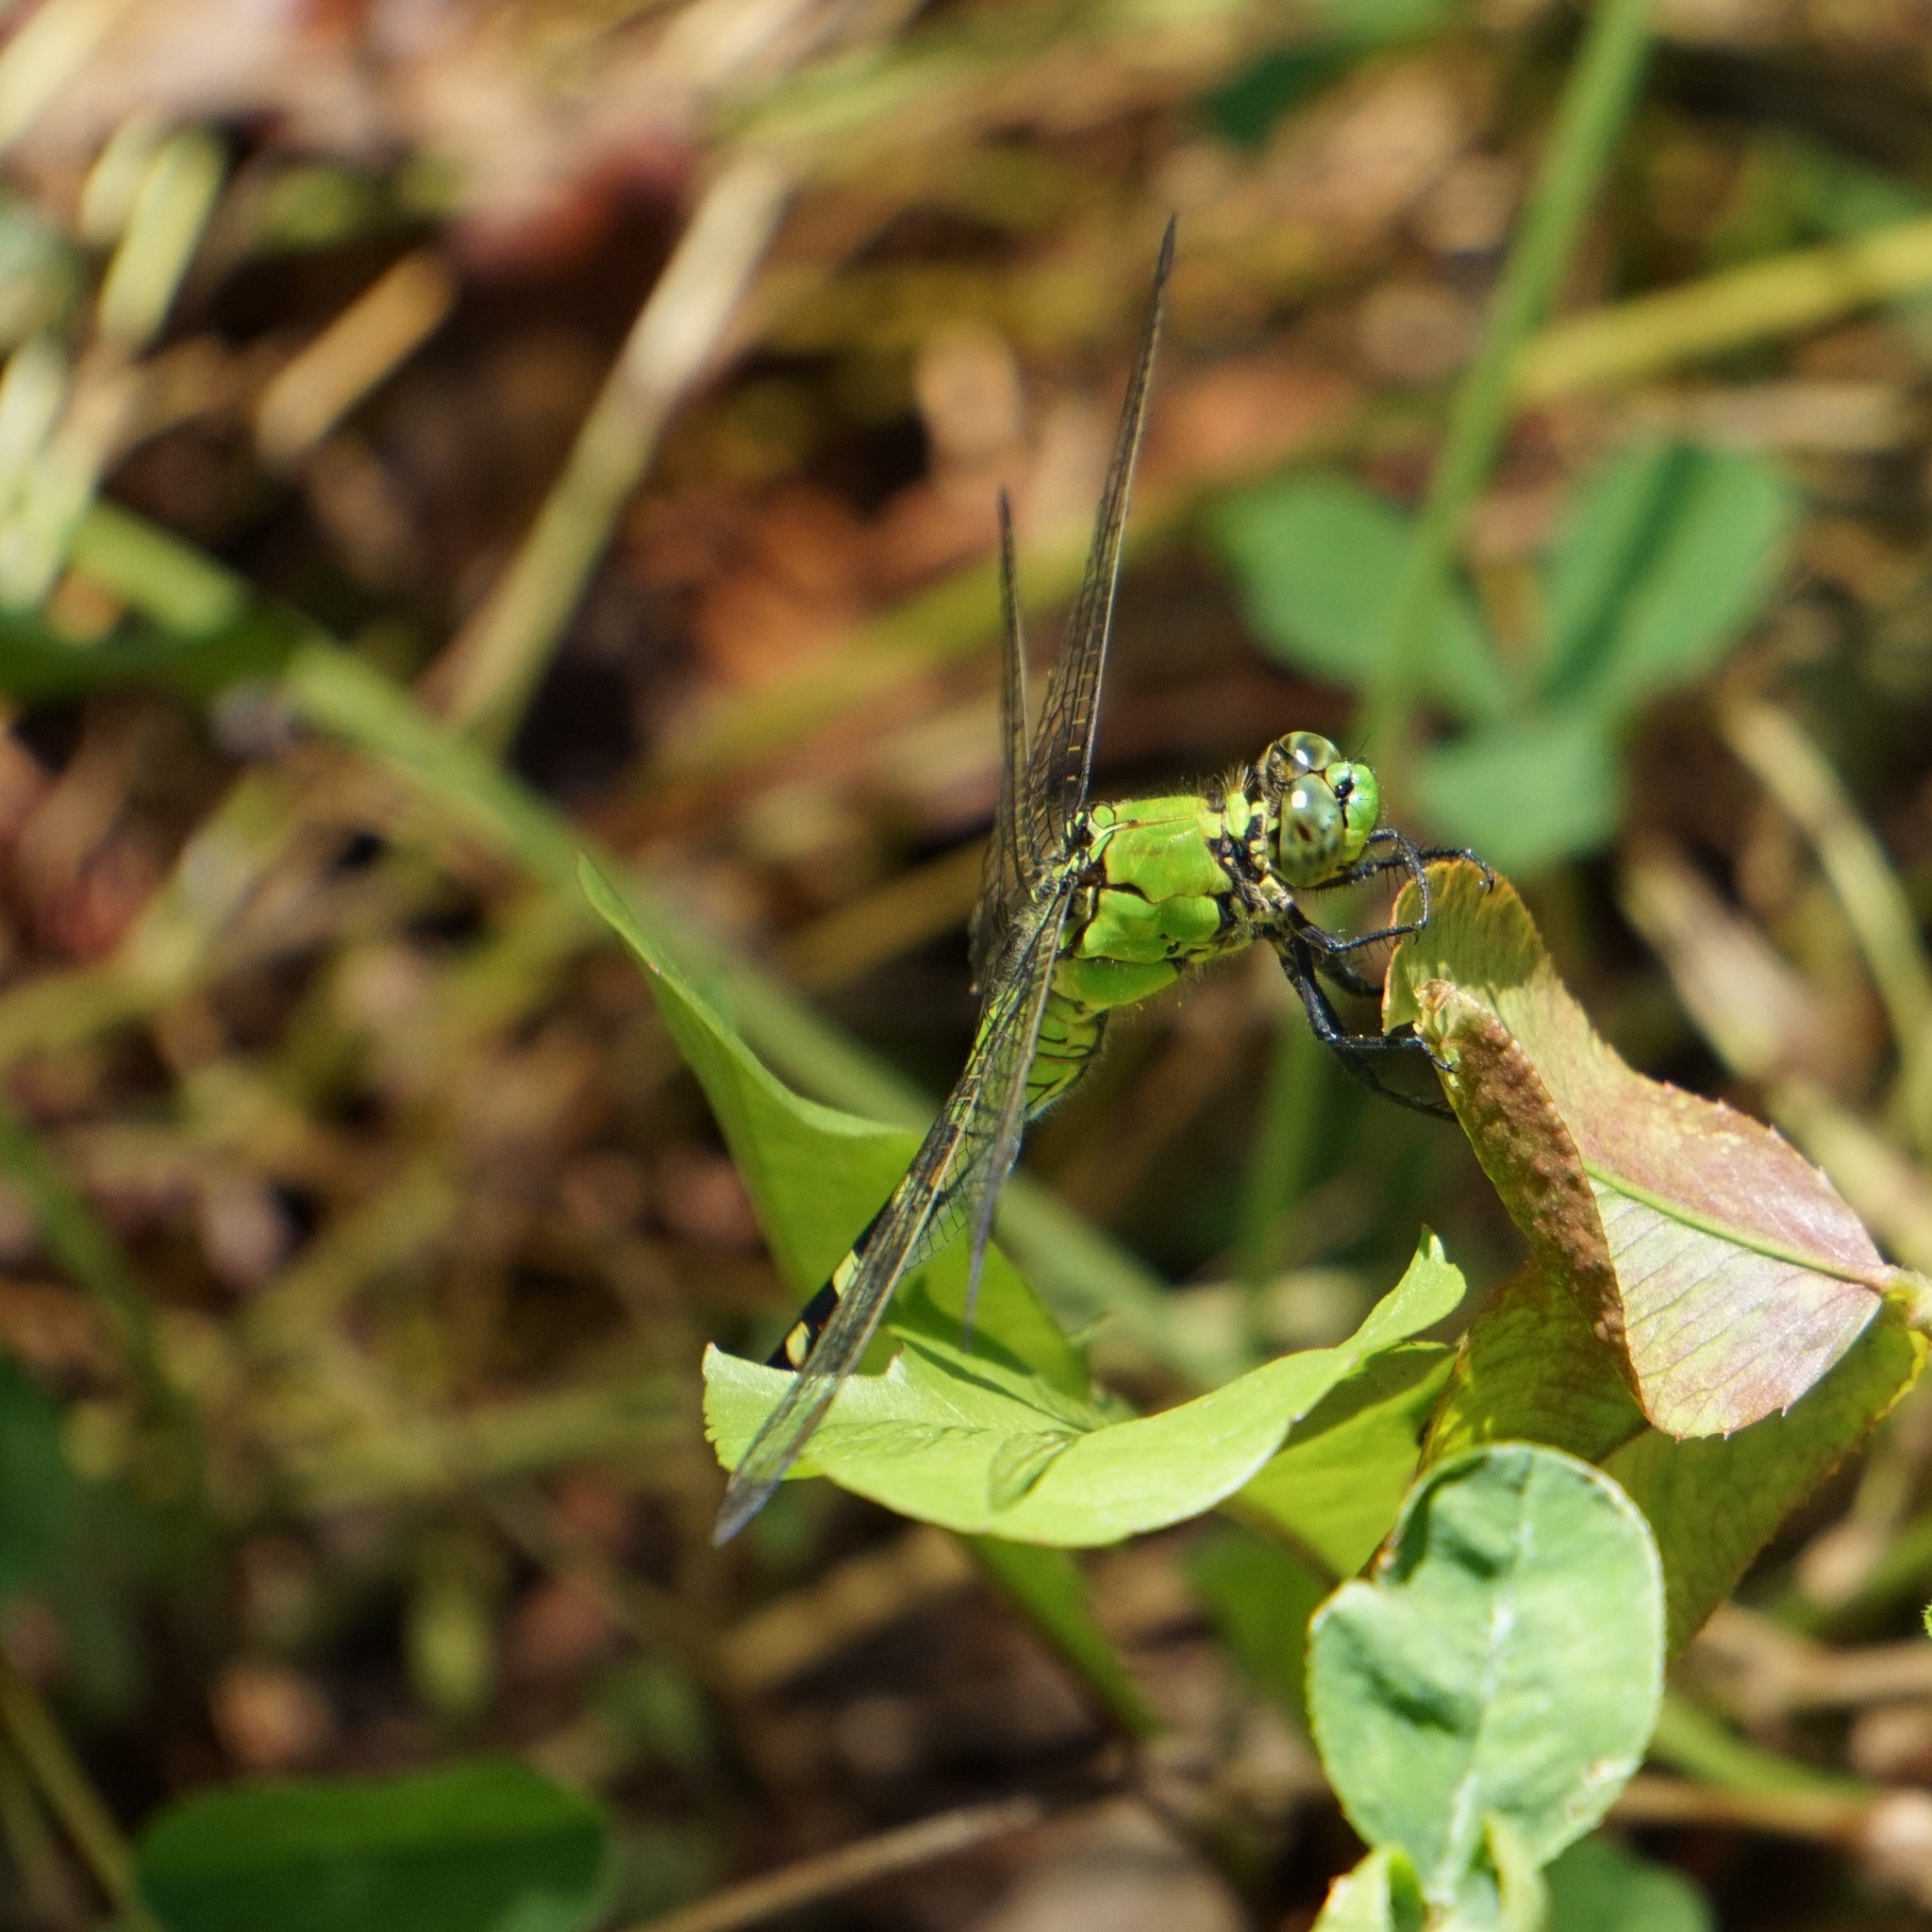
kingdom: Animalia
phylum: Arthropoda
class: Insecta
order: Odonata
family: Libellulidae
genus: Erythemis
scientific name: Erythemis simplicicollis
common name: Eastern pondhawk
